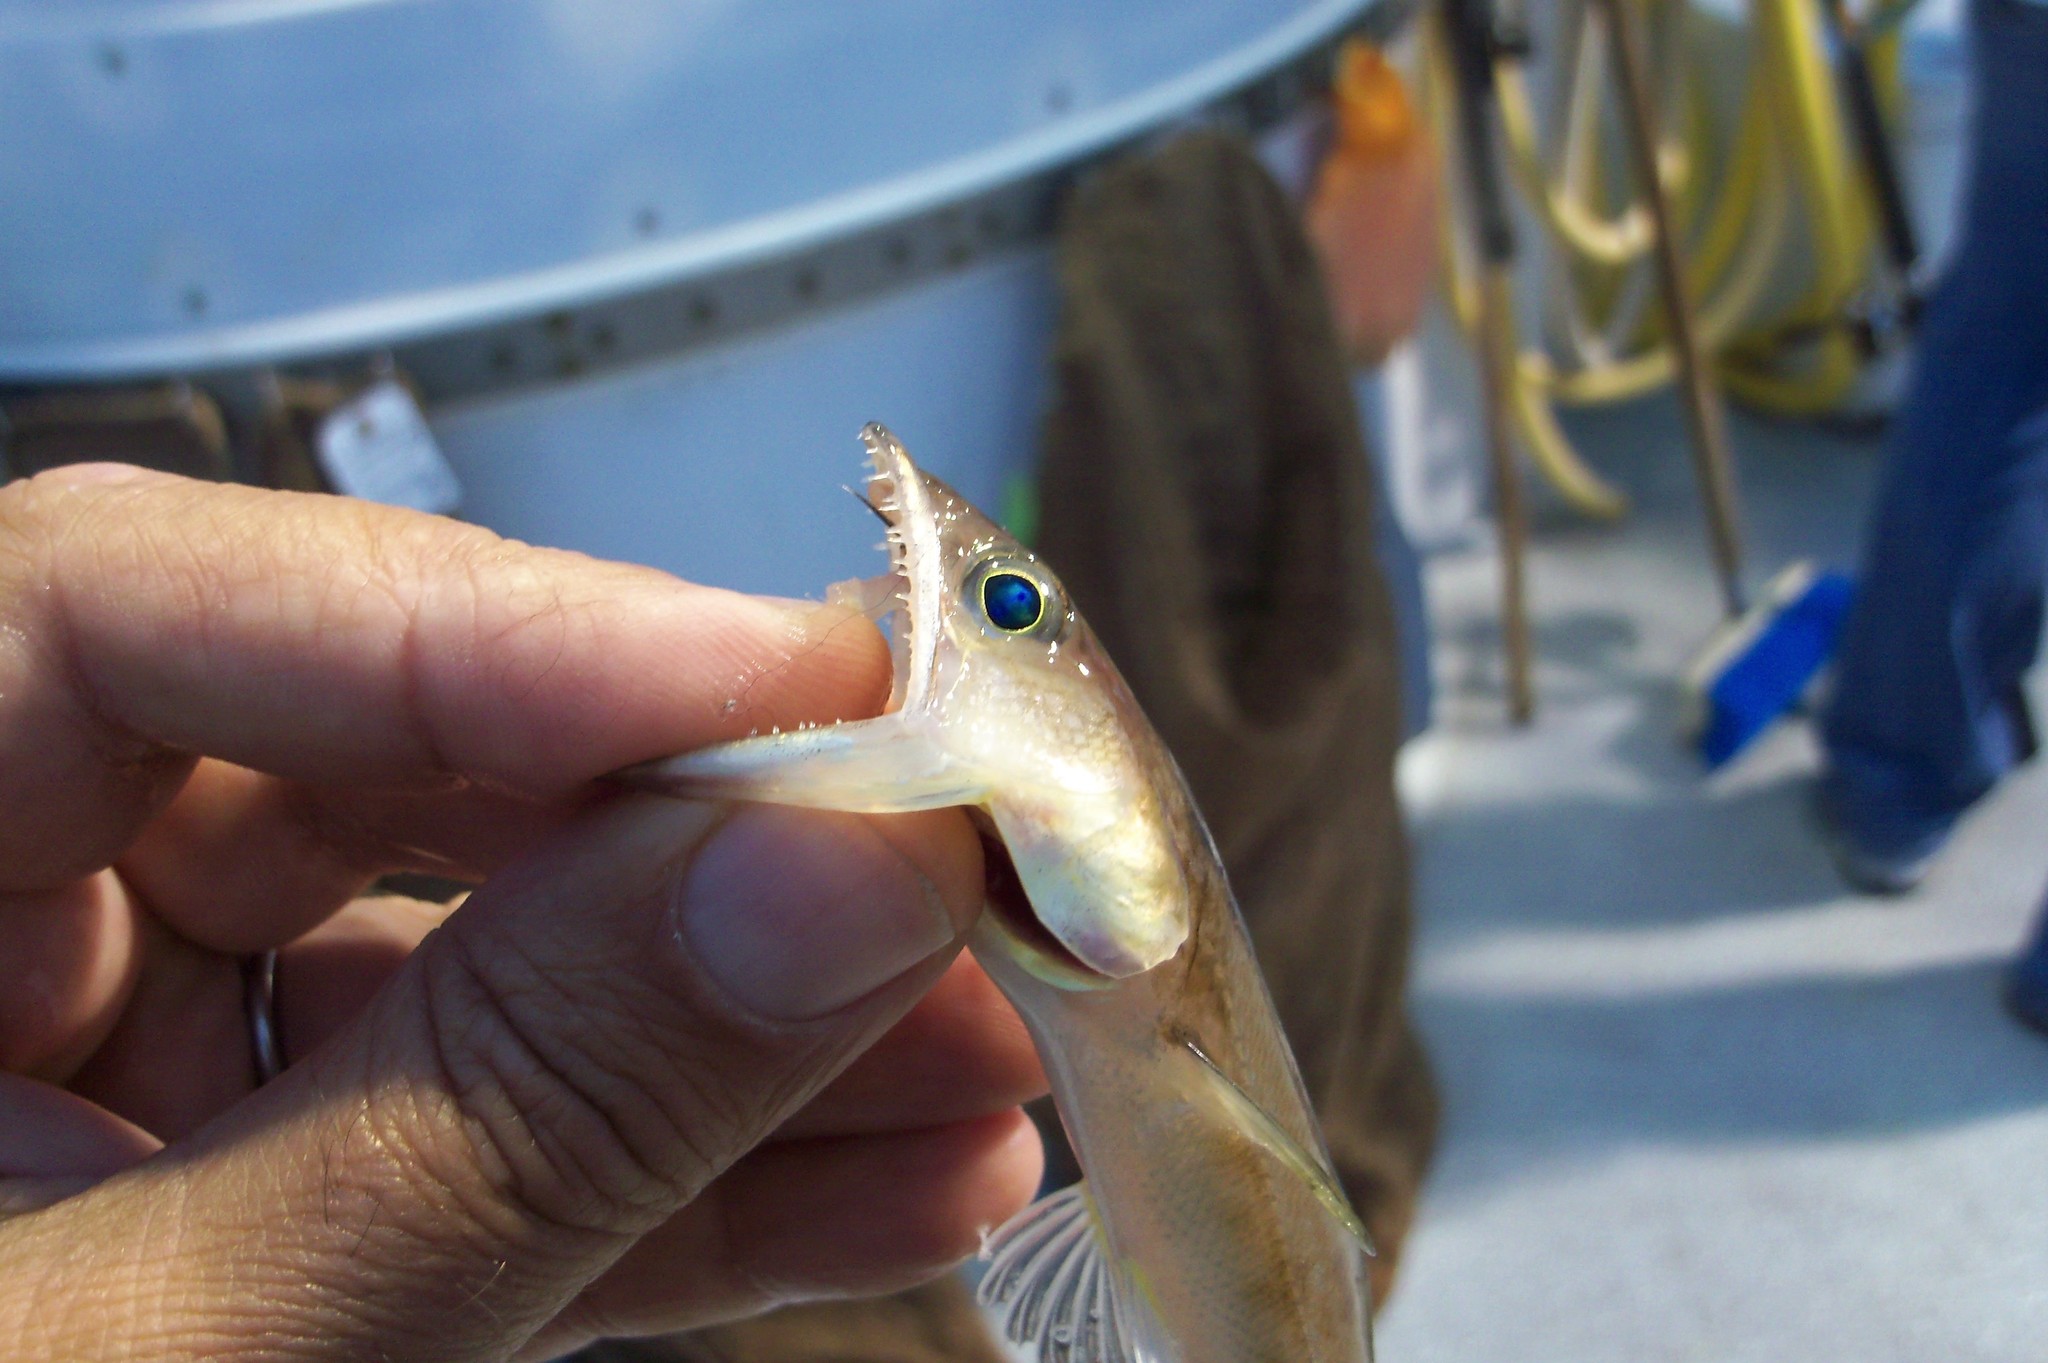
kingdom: Animalia
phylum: Chordata
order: Aulopiformes
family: Synodontidae
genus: Synodus
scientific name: Synodus lucioceps
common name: California lizardfish
